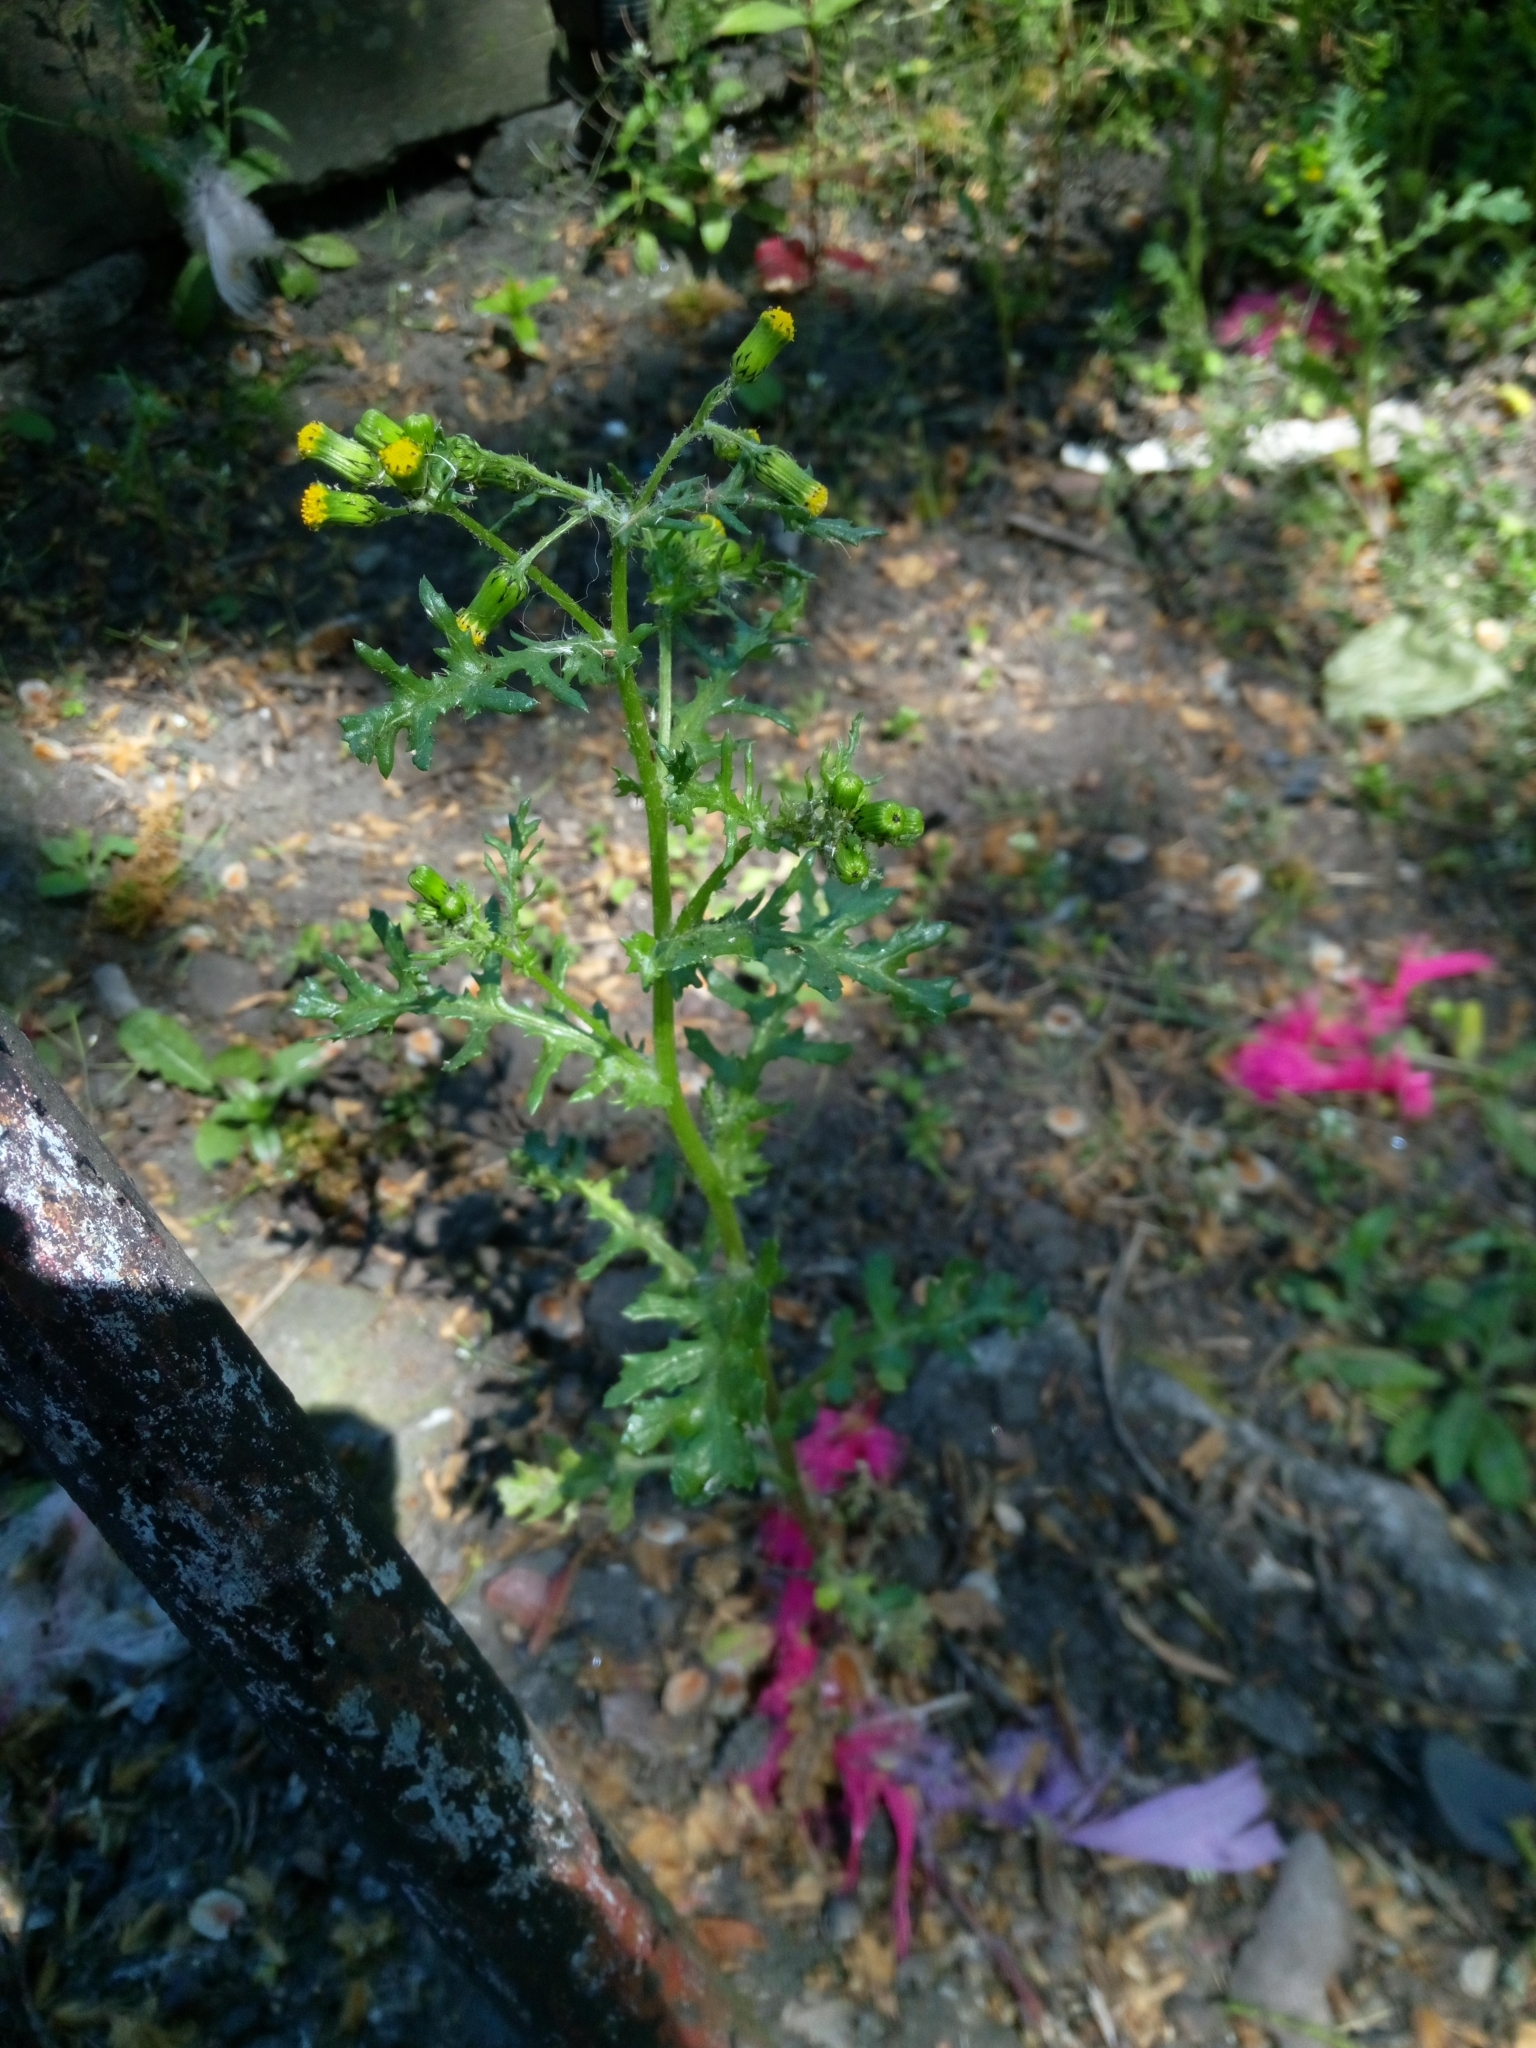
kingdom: Plantae
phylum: Tracheophyta
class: Magnoliopsida
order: Asterales
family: Asteraceae
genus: Senecio
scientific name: Senecio vulgaris
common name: Old-man-in-the-spring
